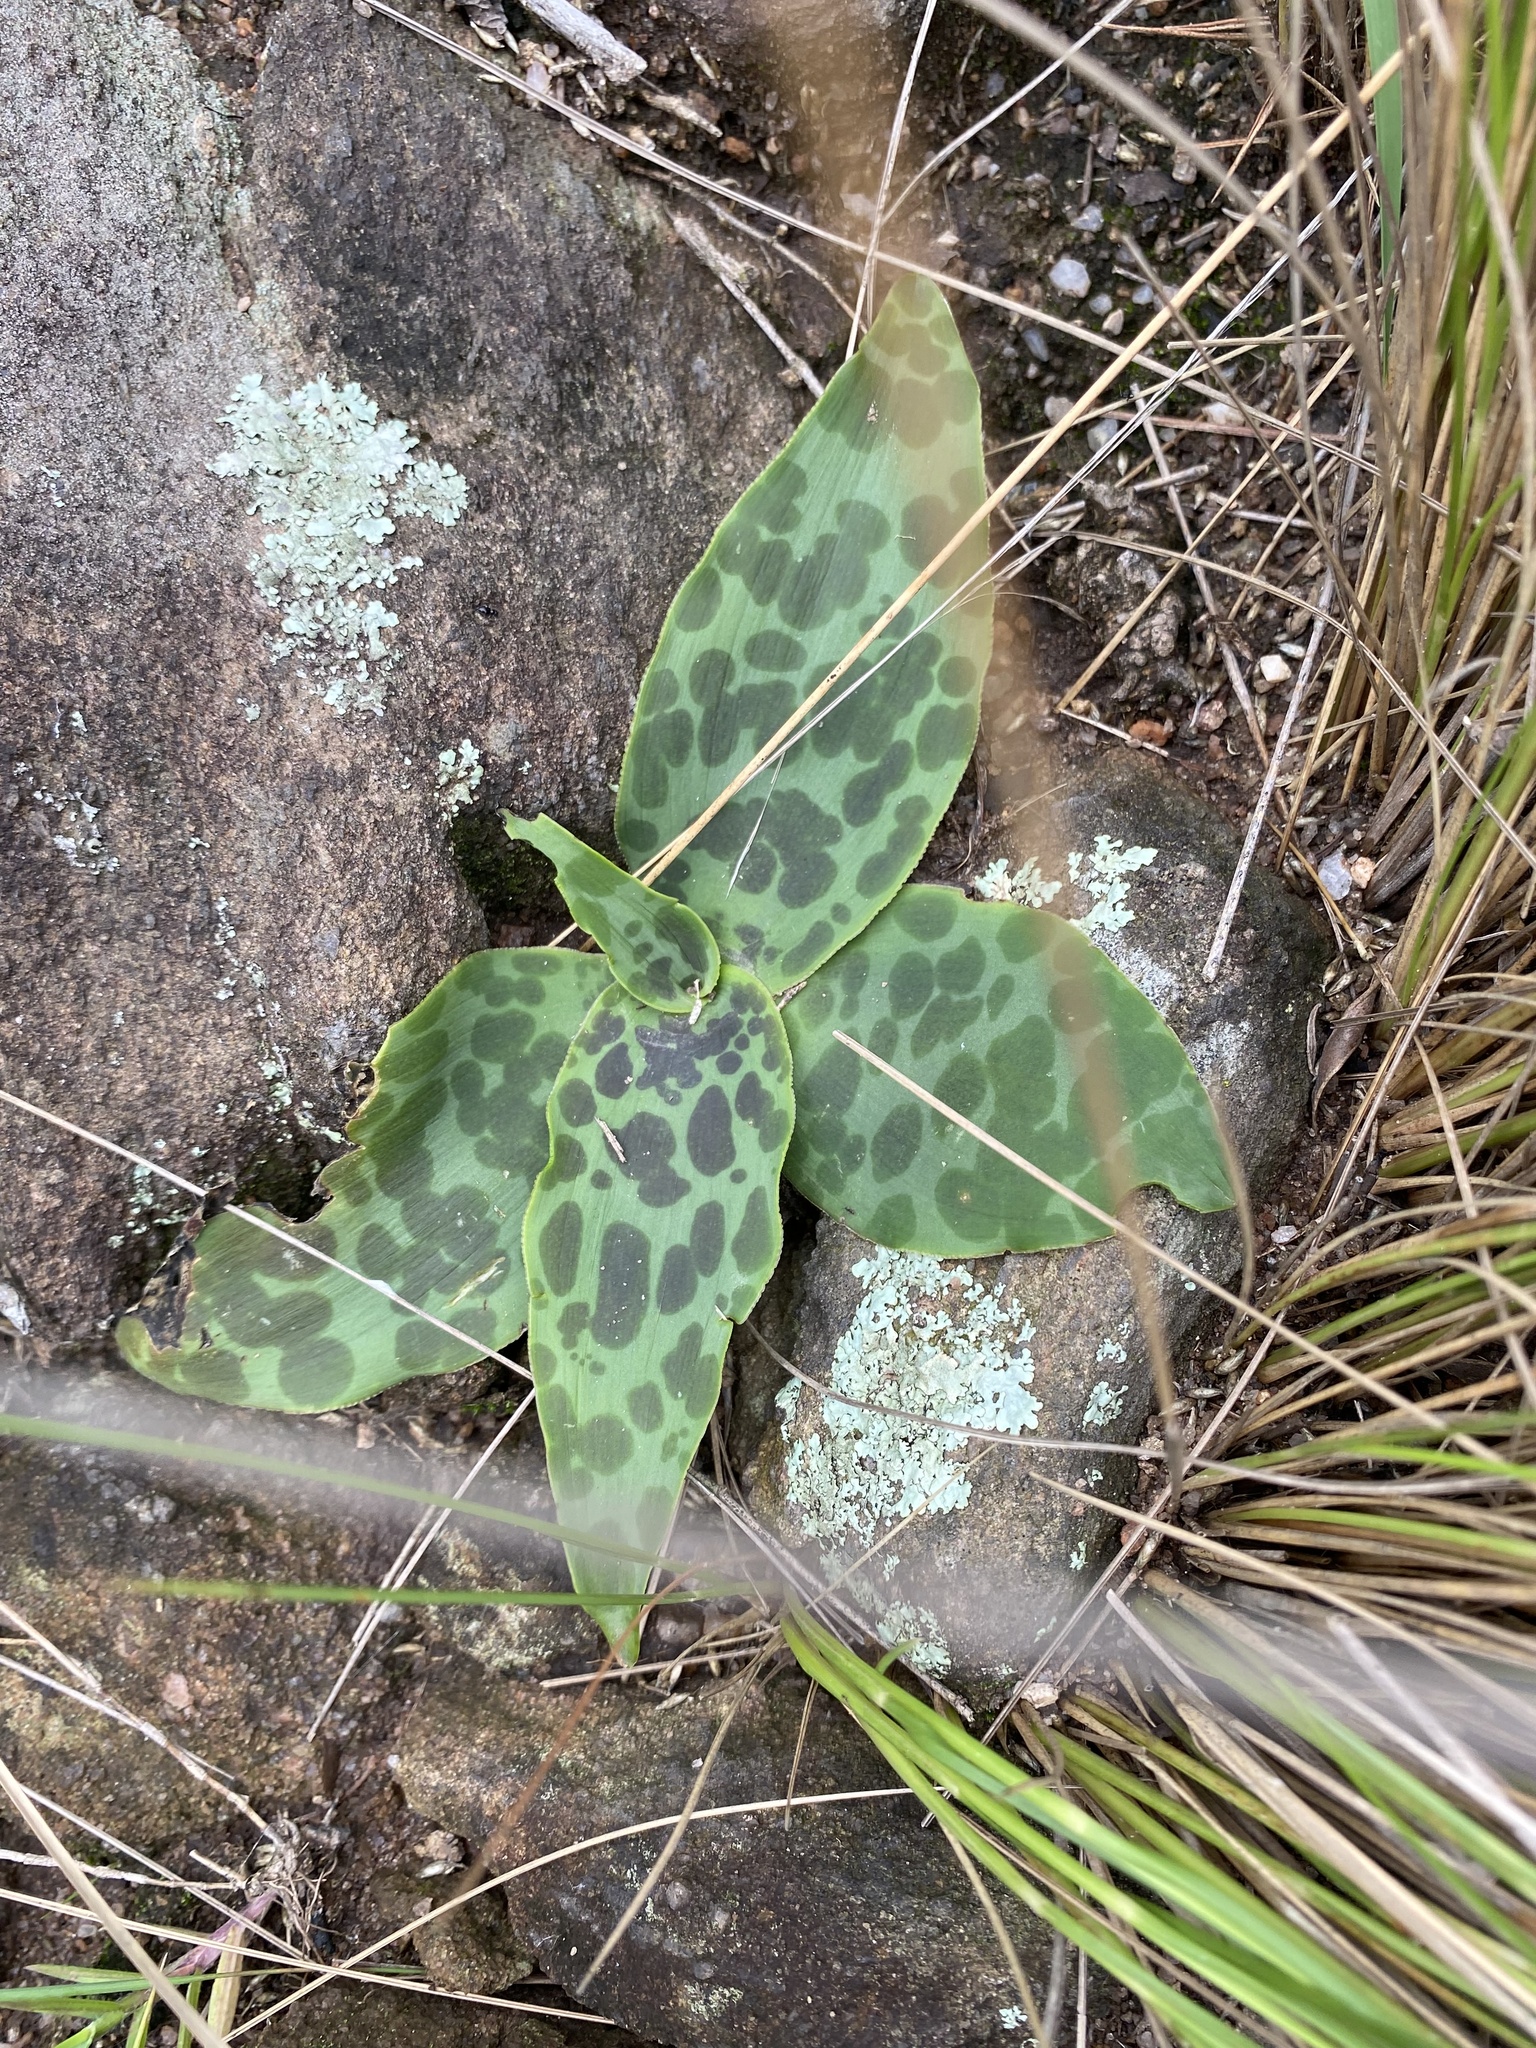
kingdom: Plantae
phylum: Tracheophyta
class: Liliopsida
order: Asparagales
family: Asparagaceae
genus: Ledebouria
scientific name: Ledebouria ovatifolia
